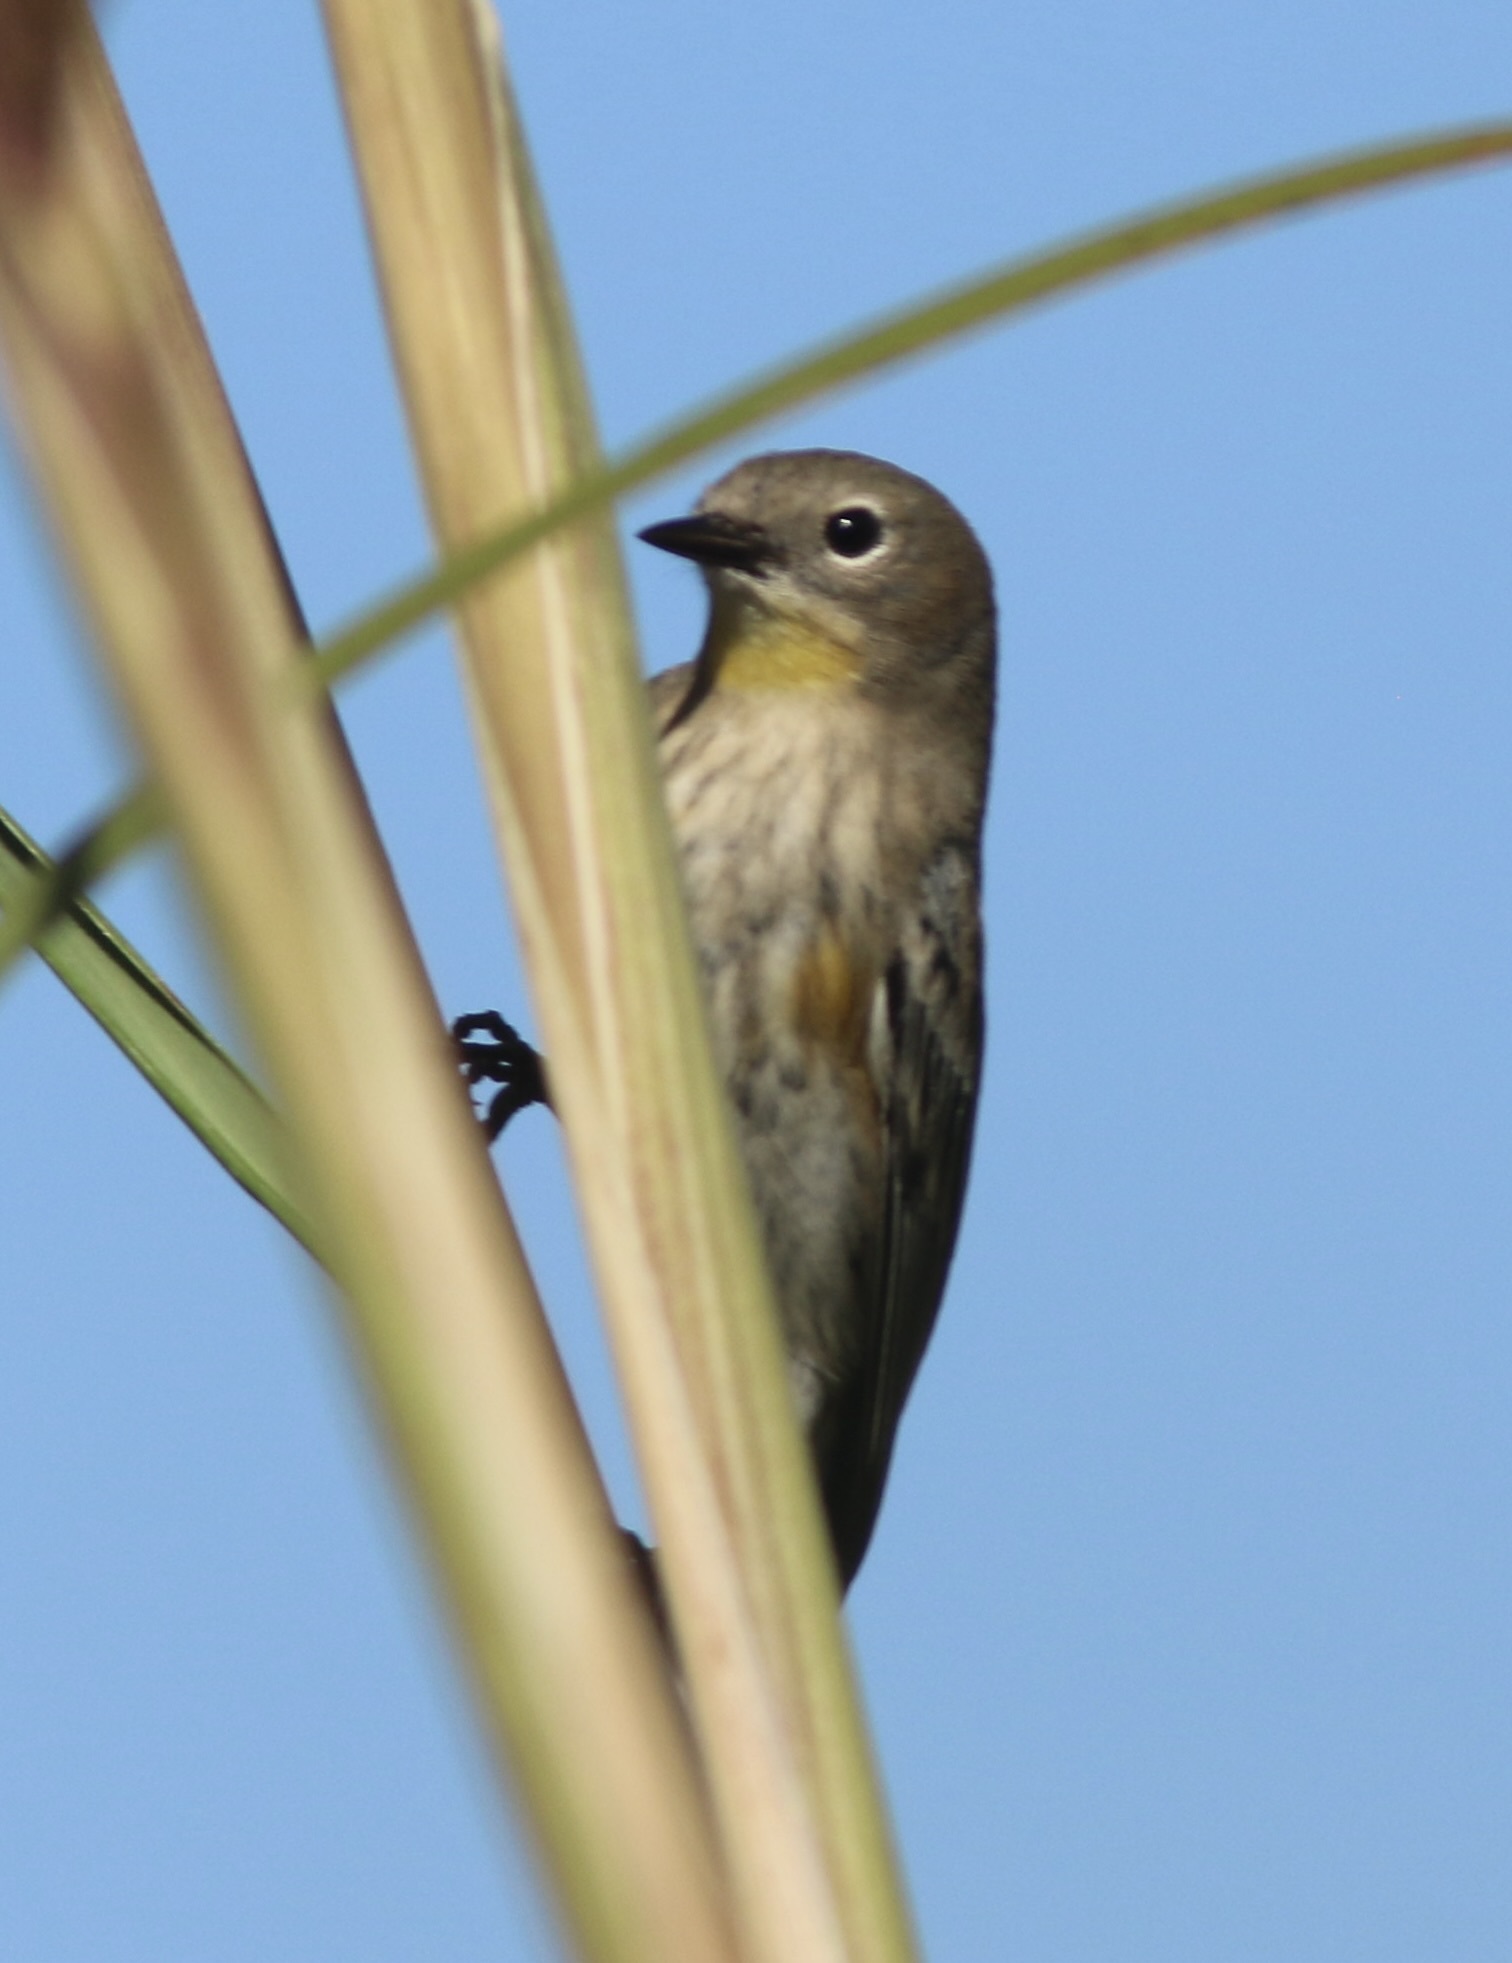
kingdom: Animalia
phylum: Chordata
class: Aves
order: Passeriformes
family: Parulidae
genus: Setophaga
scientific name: Setophaga coronata
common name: Myrtle warbler
